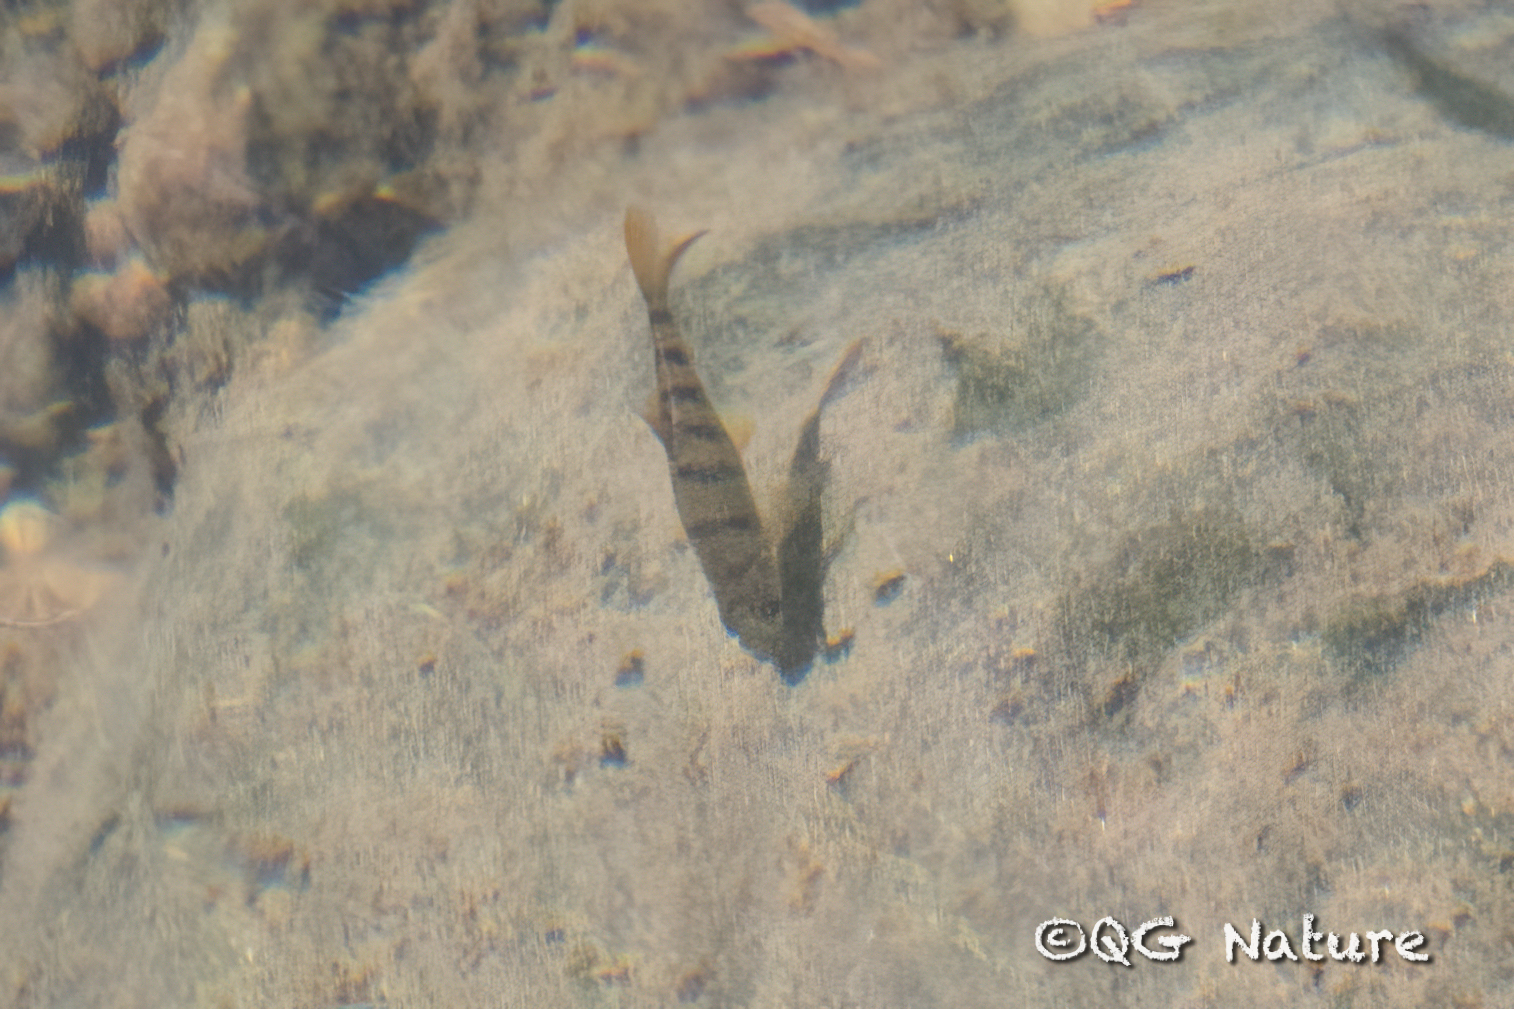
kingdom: Animalia
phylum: Chordata
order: Cypriniformes
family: Cyprinidae
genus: Acrossocheilus
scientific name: Acrossocheilus hemispinus
